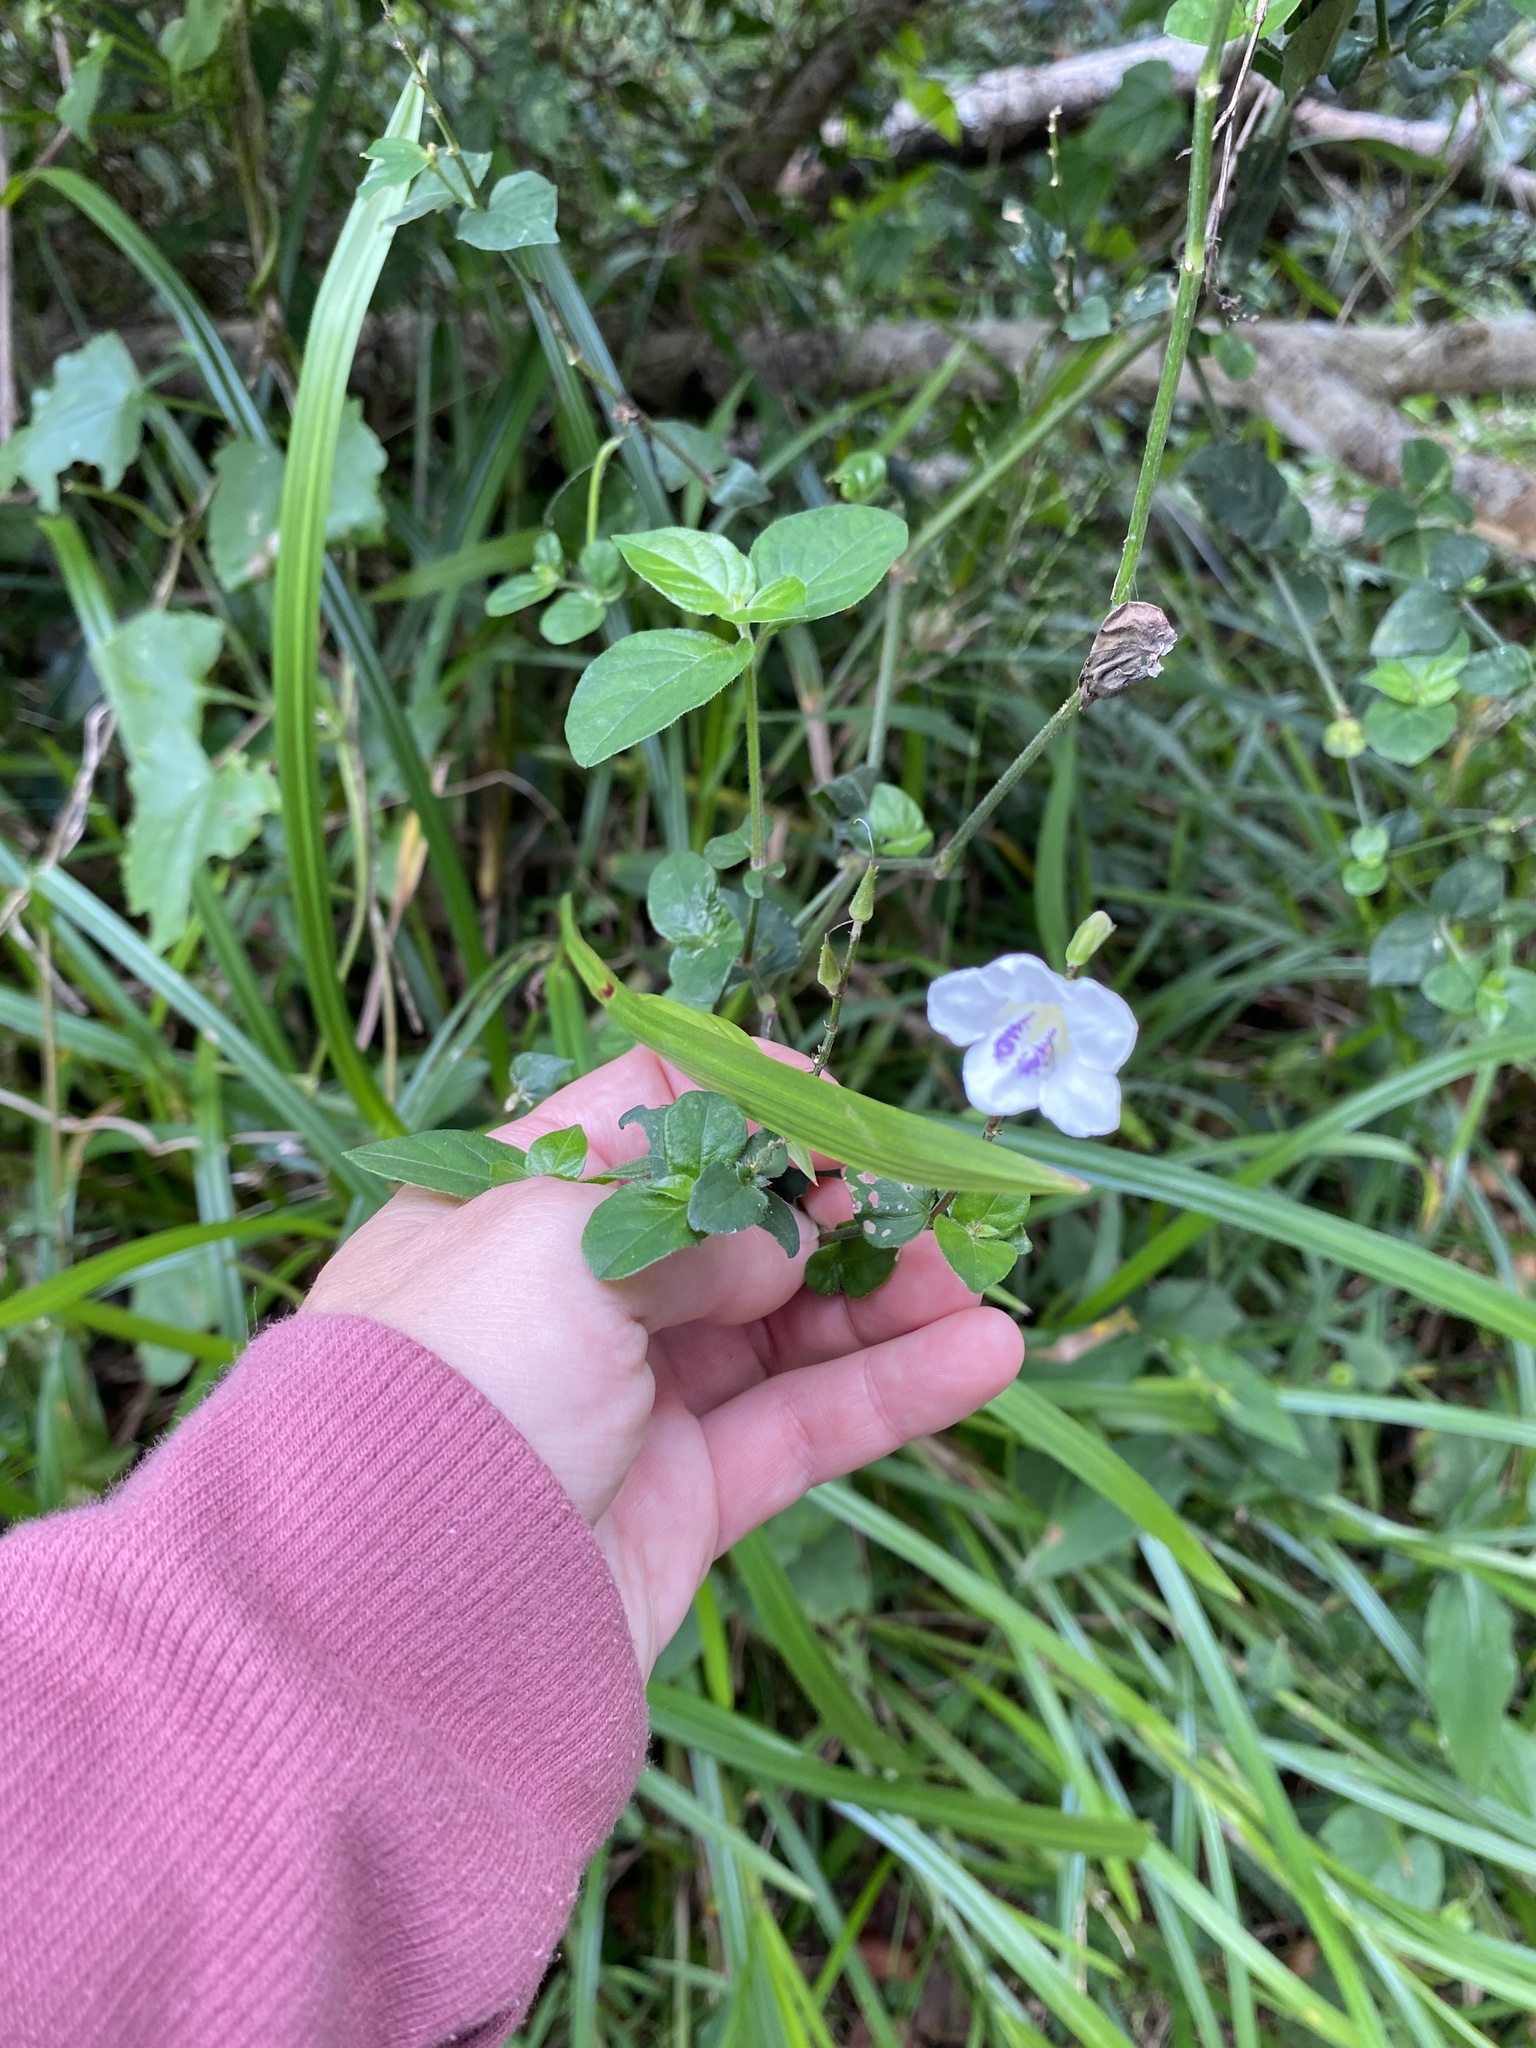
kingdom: Plantae
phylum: Tracheophyta
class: Magnoliopsida
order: Lamiales
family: Acanthaceae
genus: Asystasia
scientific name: Asystasia intrusa
